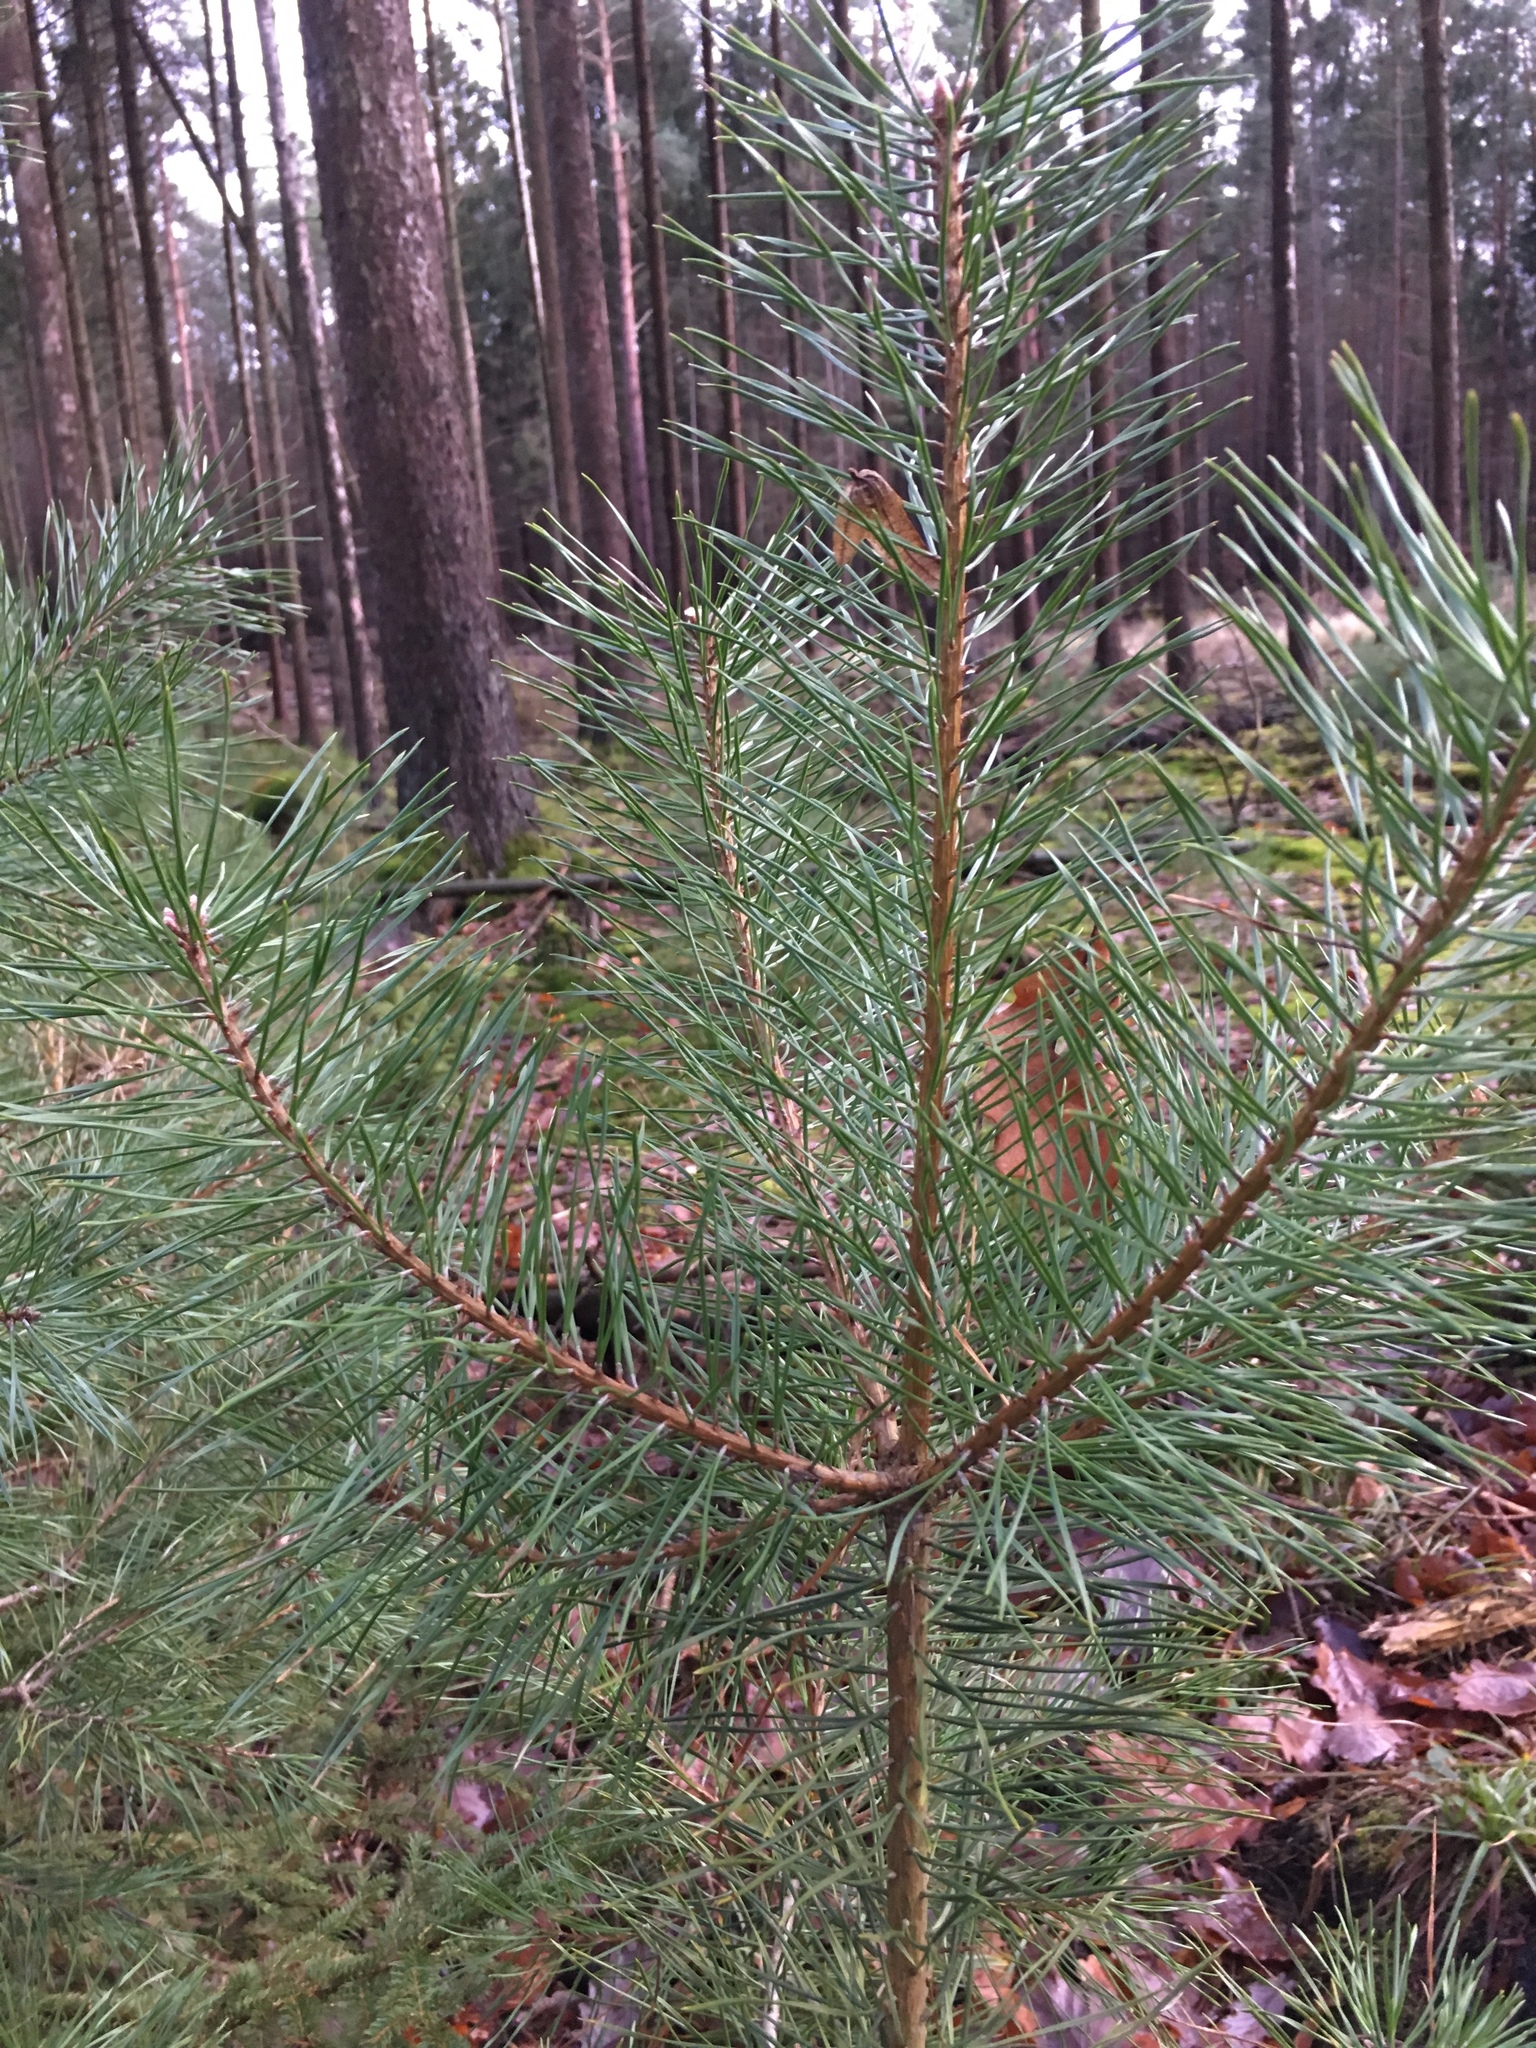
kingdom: Plantae
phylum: Tracheophyta
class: Pinopsida
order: Pinales
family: Pinaceae
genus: Pinus
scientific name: Pinus sylvestris
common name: Scots pine
